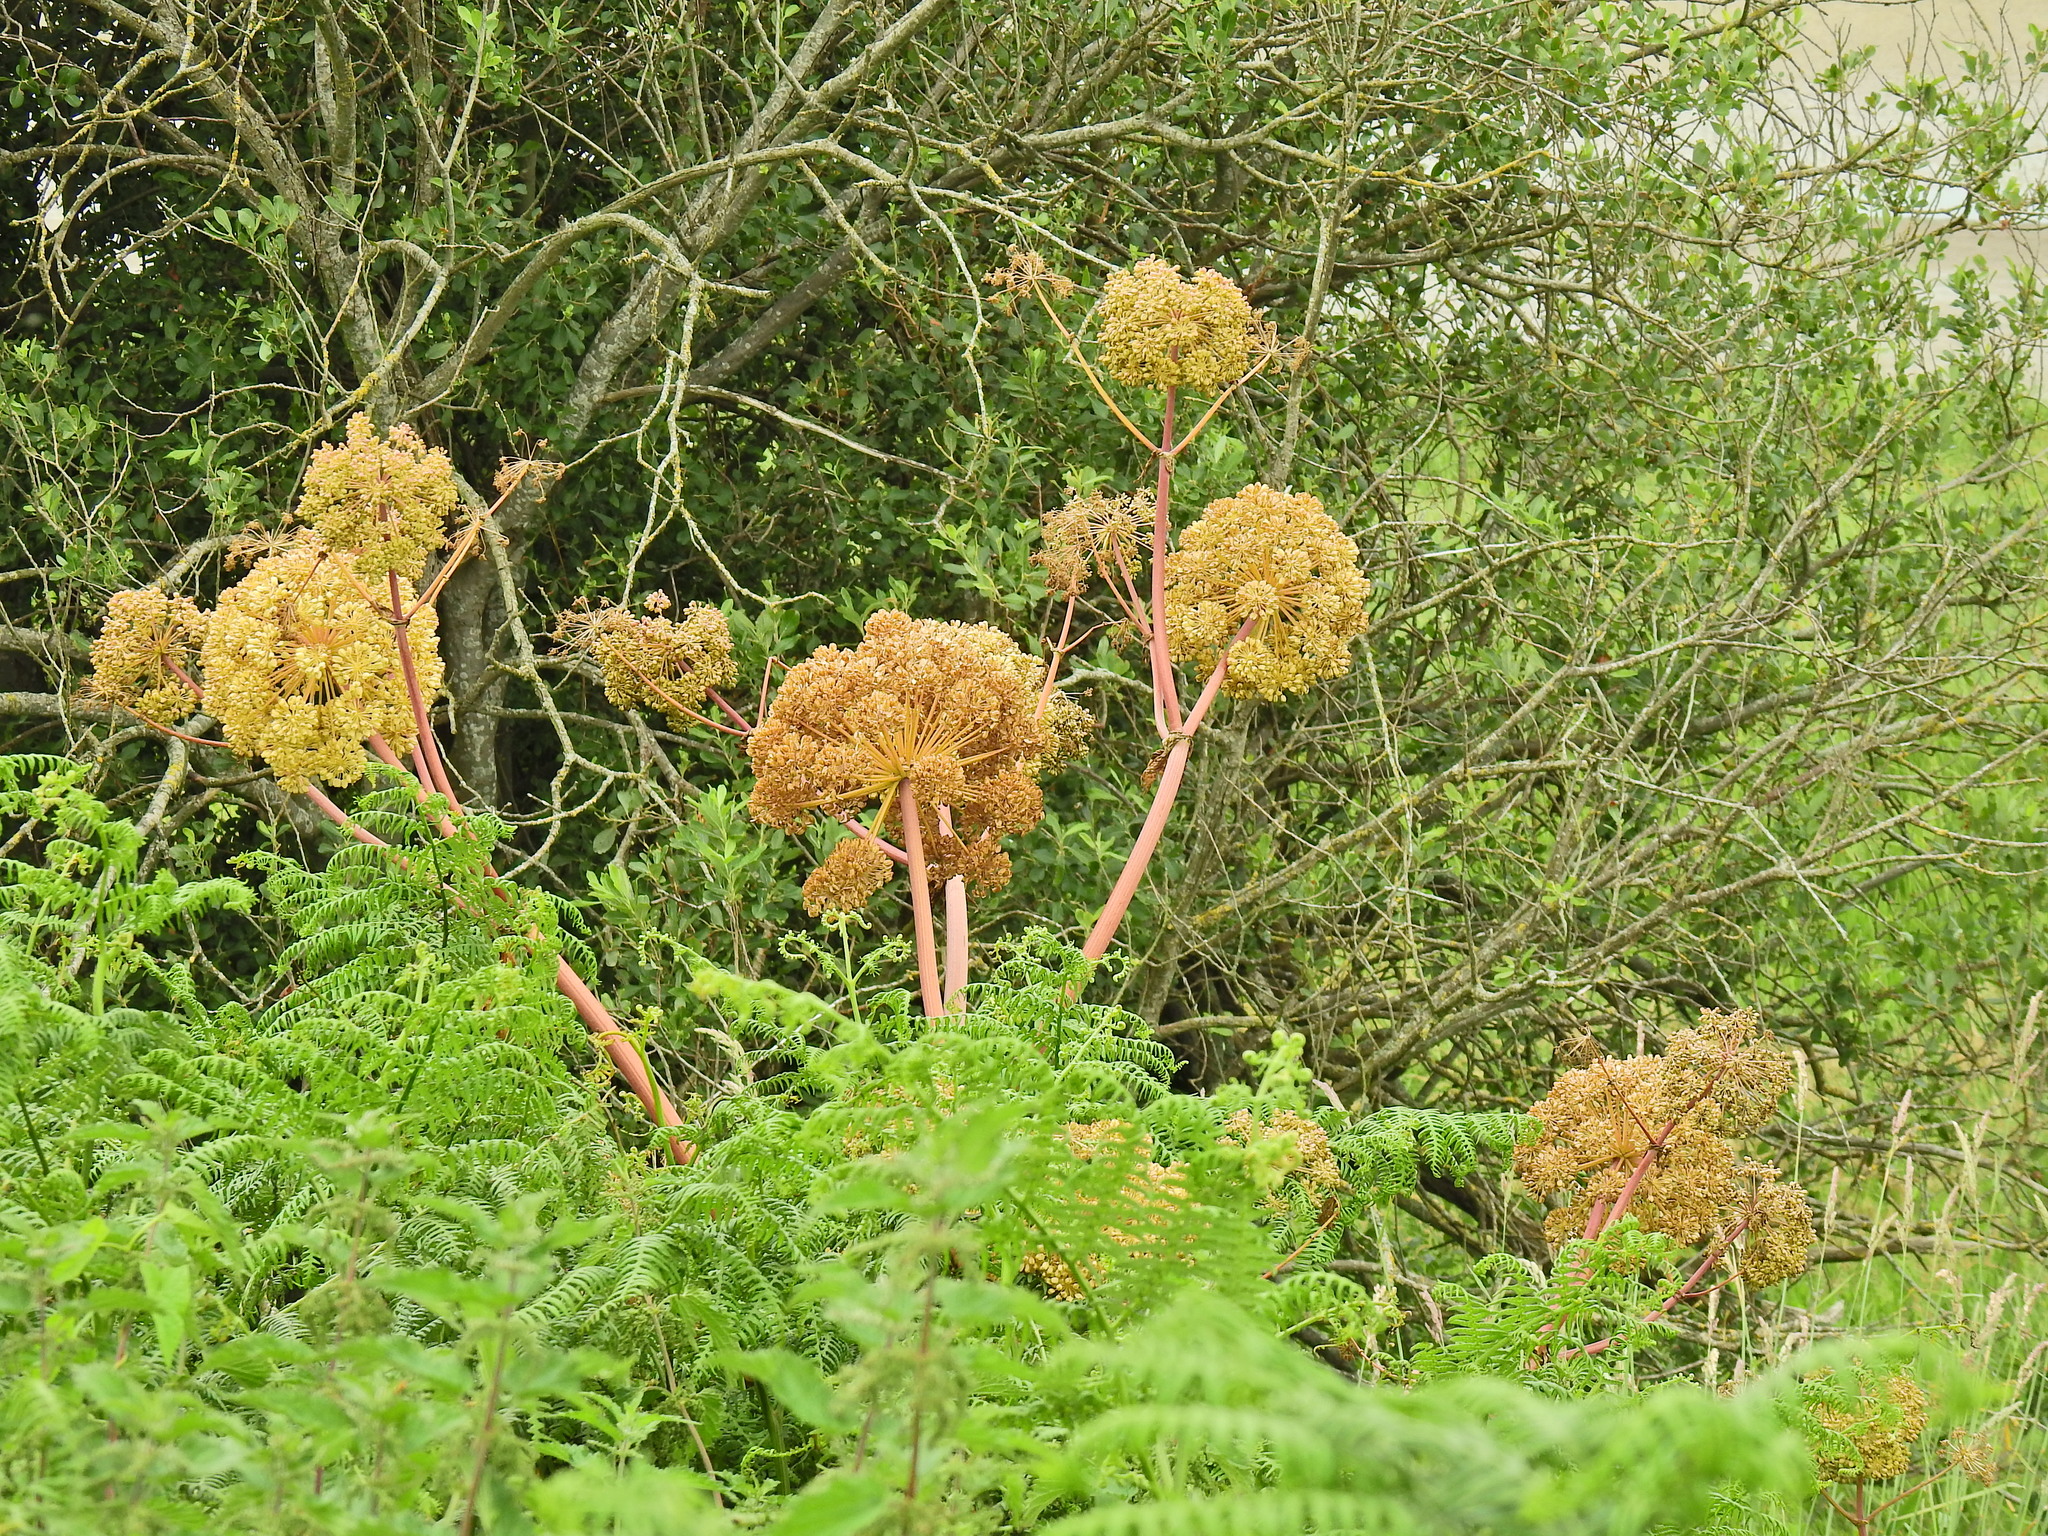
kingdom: Plantae
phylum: Tracheophyta
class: Magnoliopsida
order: Apiales
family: Apiaceae
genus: Angelica
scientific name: Angelica archangelica
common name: Garden angelica
